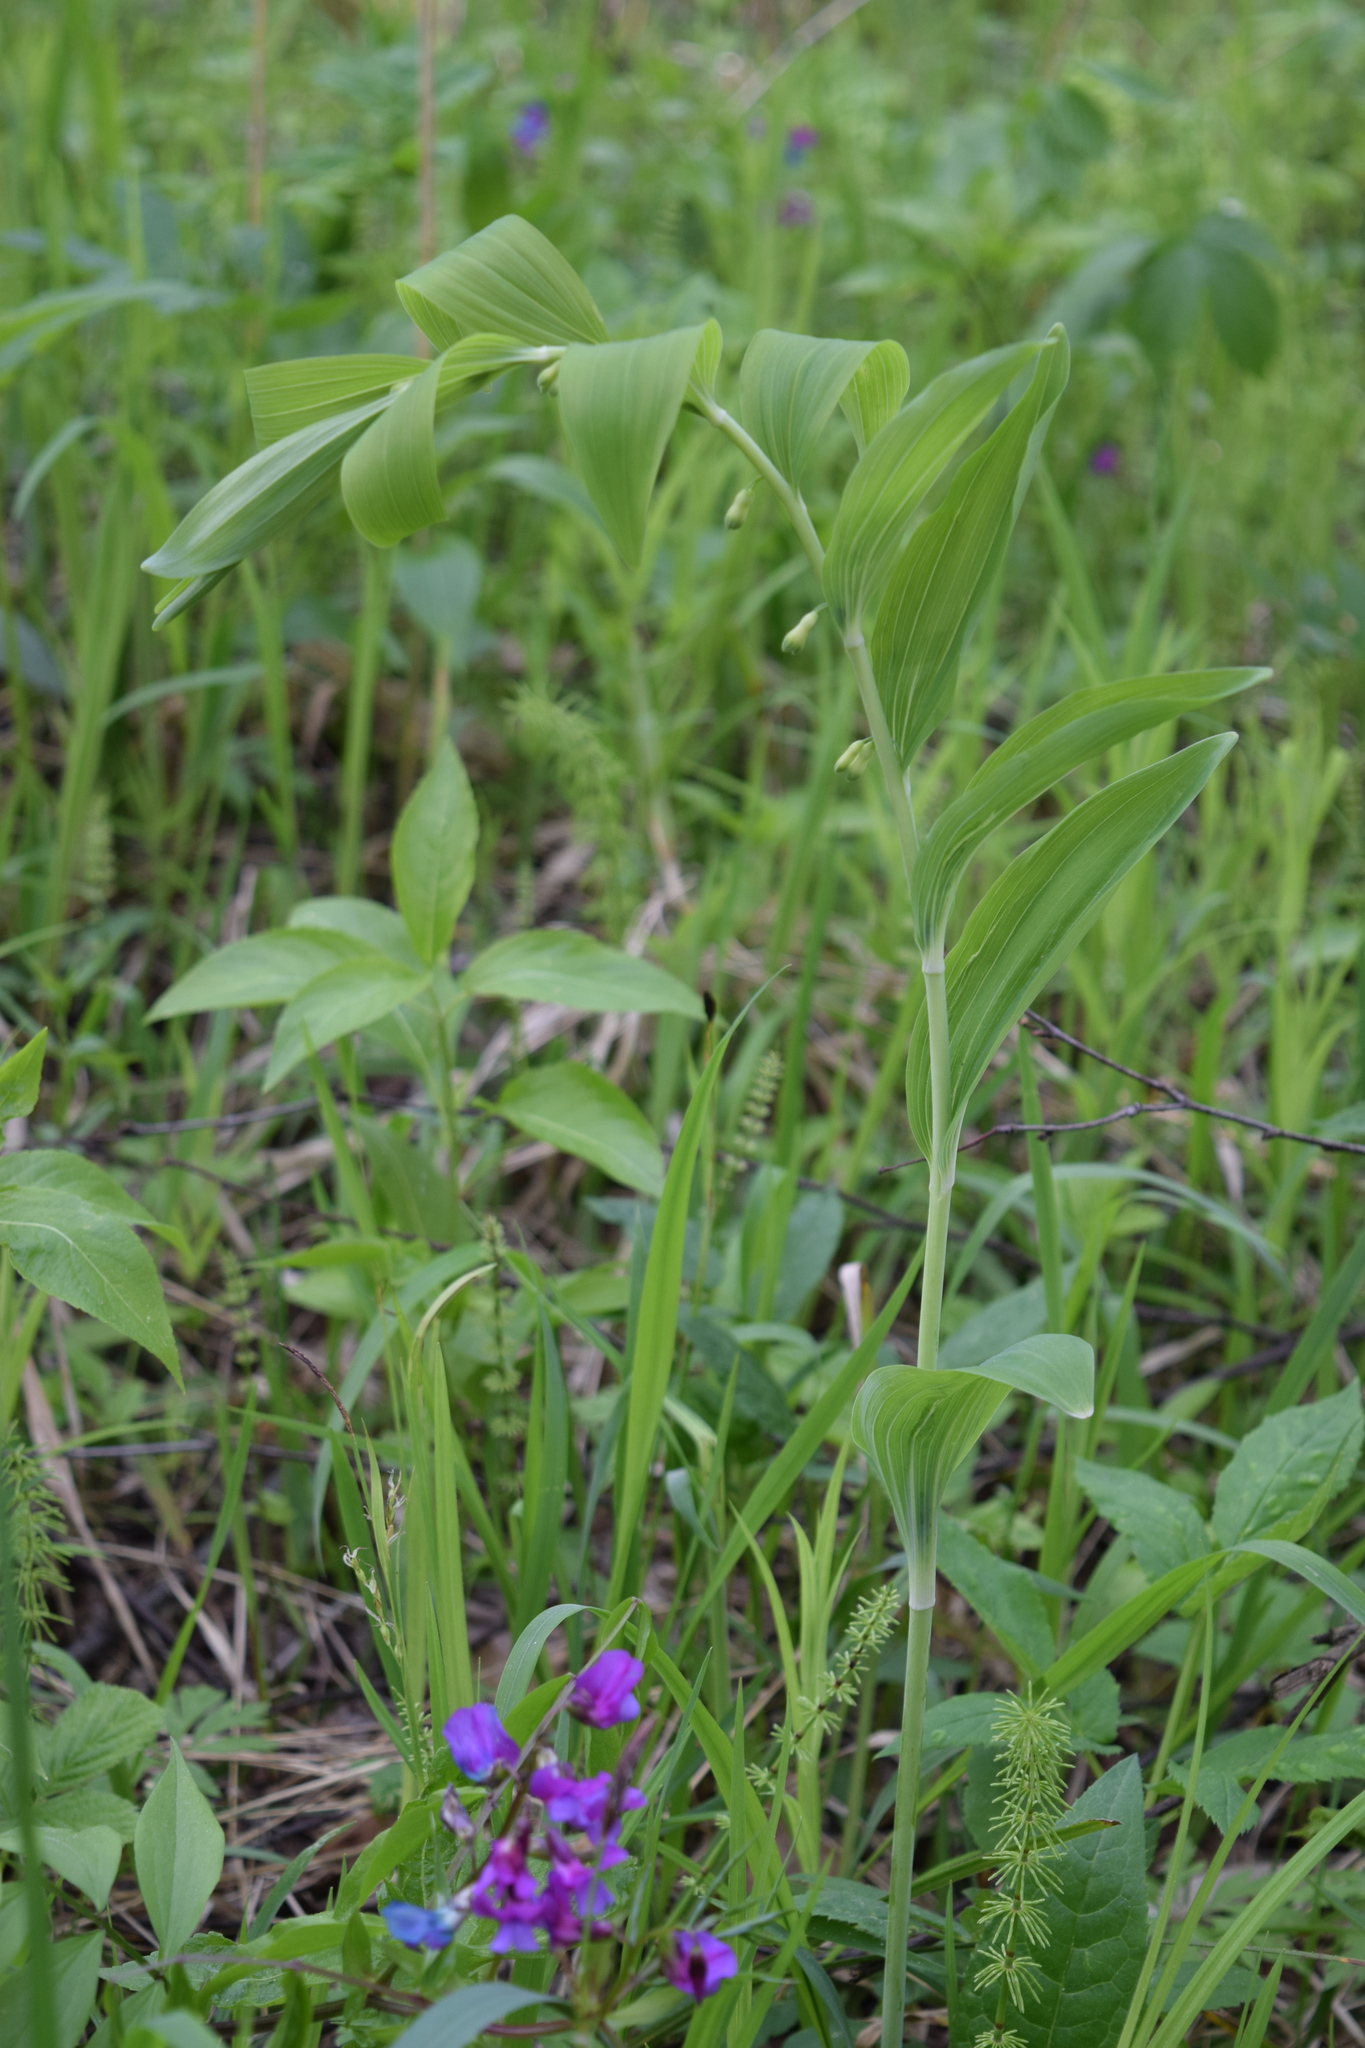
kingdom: Plantae
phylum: Tracheophyta
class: Liliopsida
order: Asparagales
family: Asparagaceae
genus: Polygonatum
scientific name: Polygonatum multiflorum
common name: Solomon's-seal
